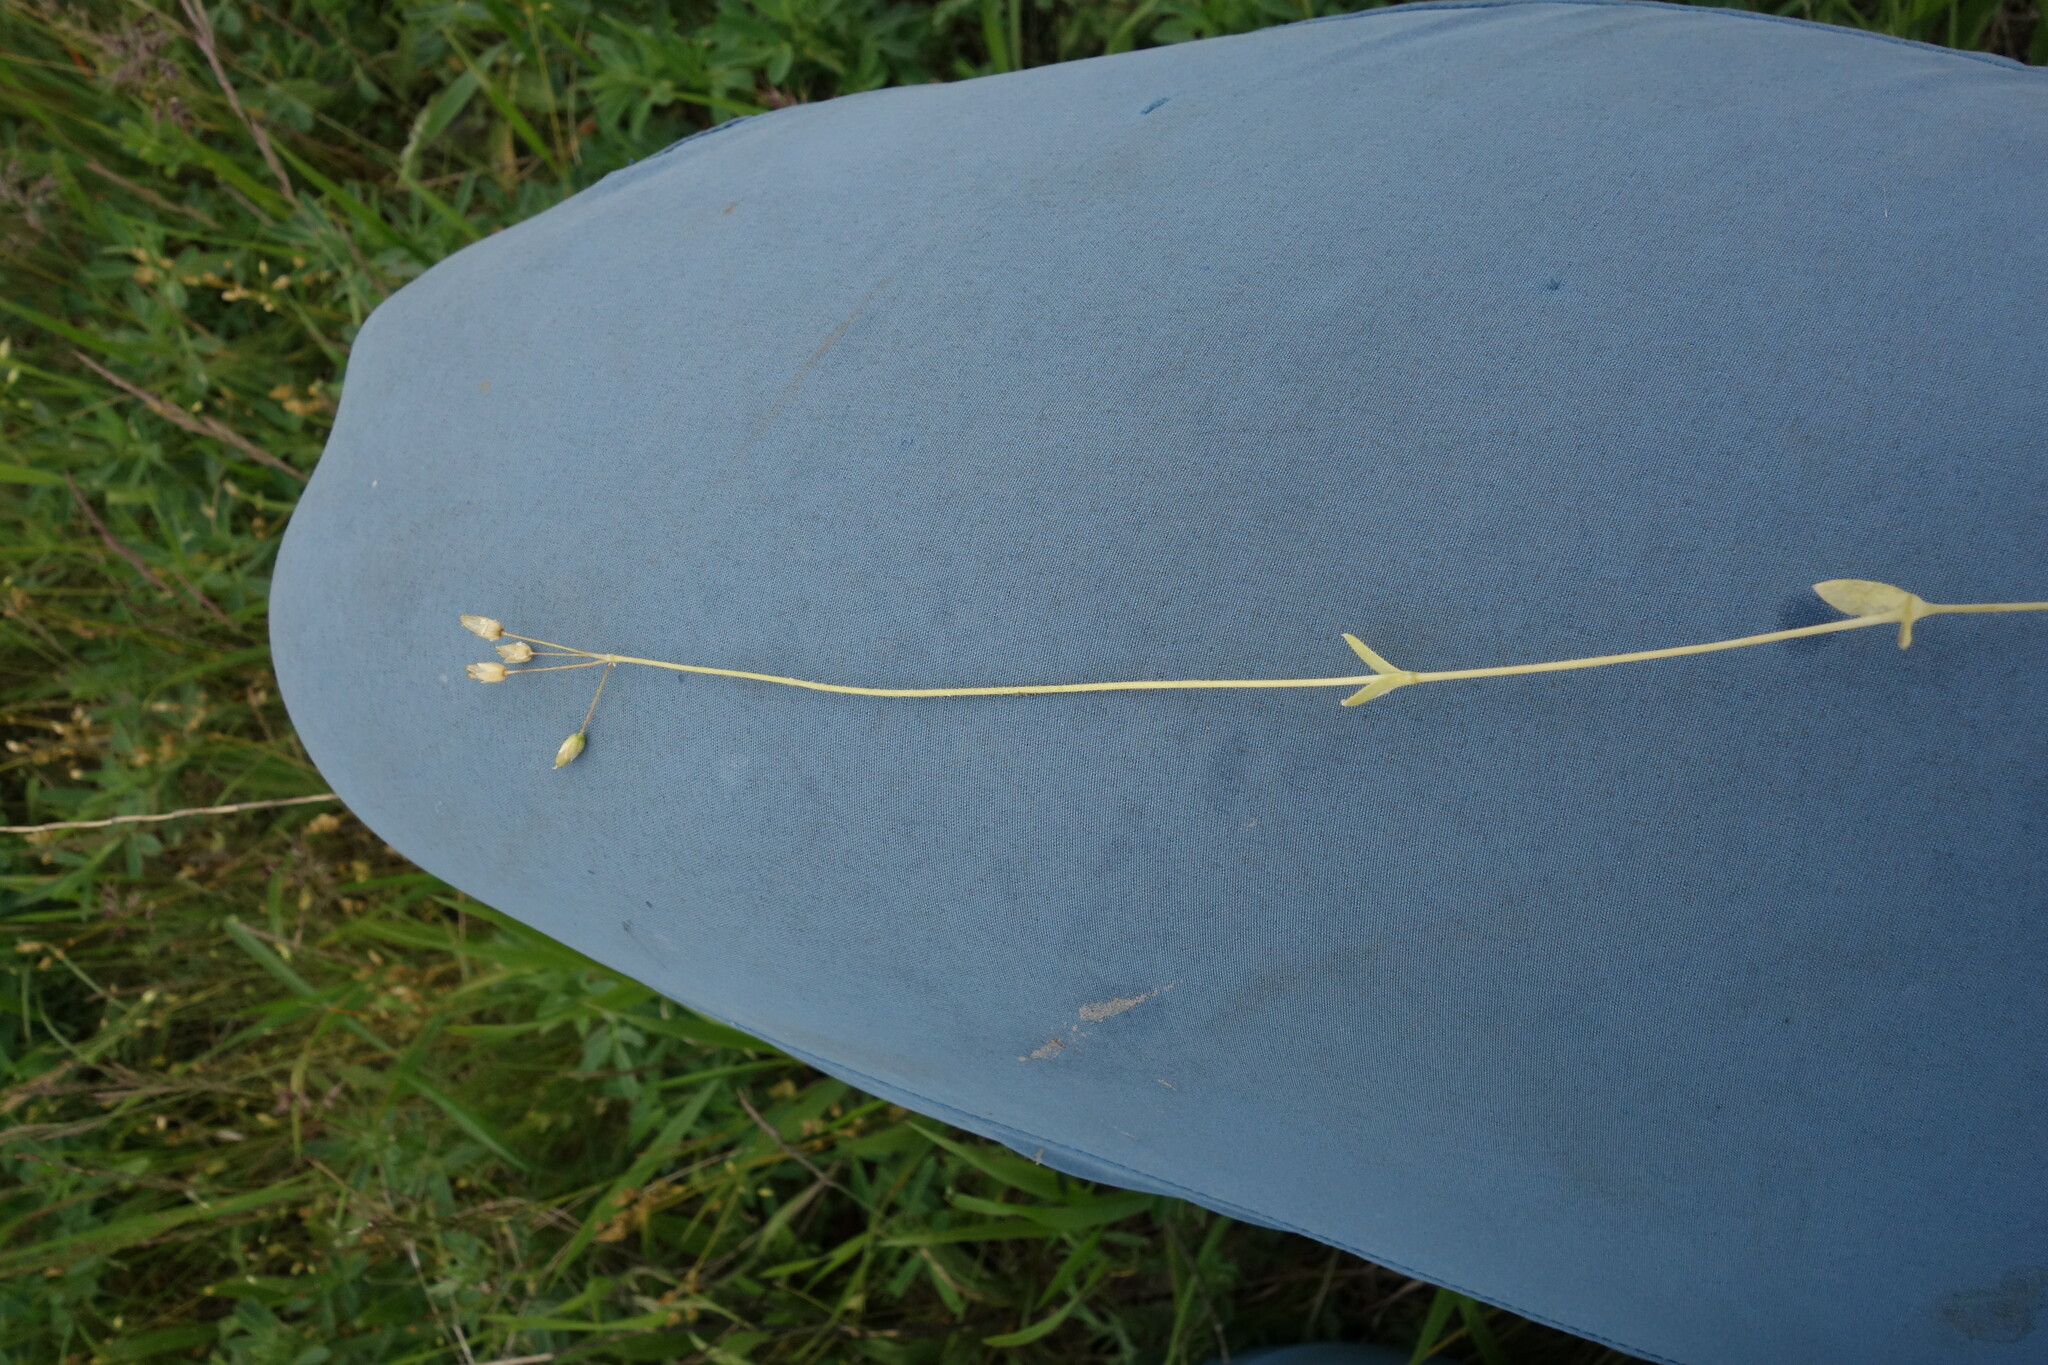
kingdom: Plantae
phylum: Tracheophyta
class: Magnoliopsida
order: Caryophyllales
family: Caryophyllaceae
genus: Holosteum
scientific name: Holosteum umbellatum
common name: Jagged chickweed
